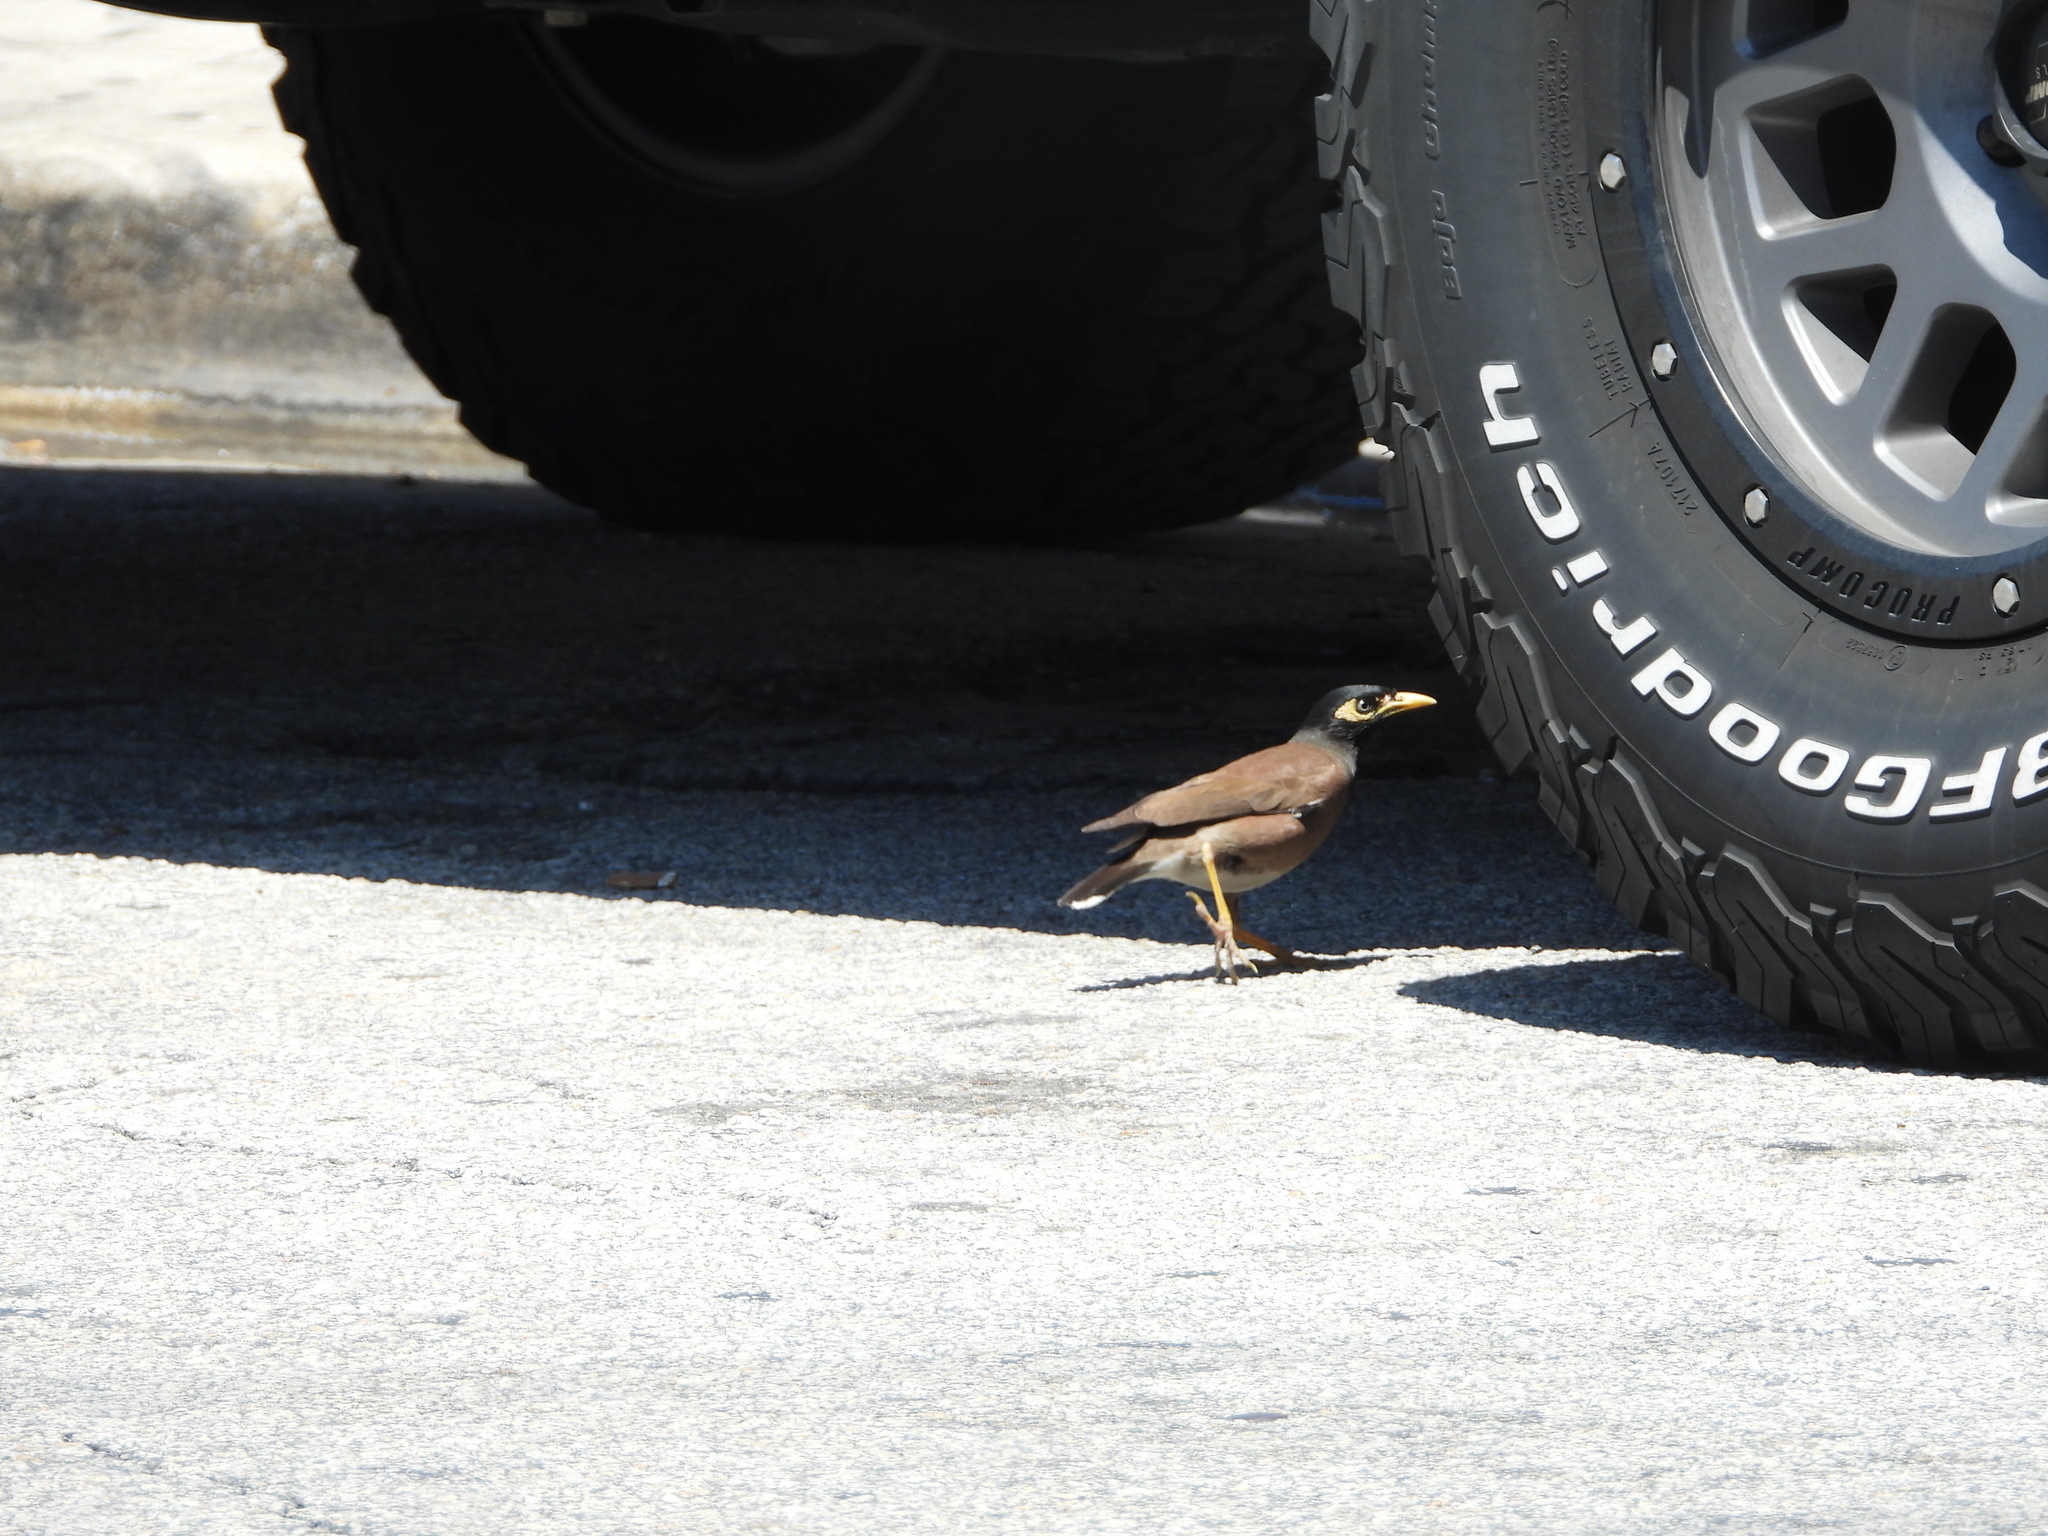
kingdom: Animalia
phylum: Chordata
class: Aves
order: Passeriformes
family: Sturnidae
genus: Acridotheres
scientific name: Acridotheres tristis
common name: Common myna
